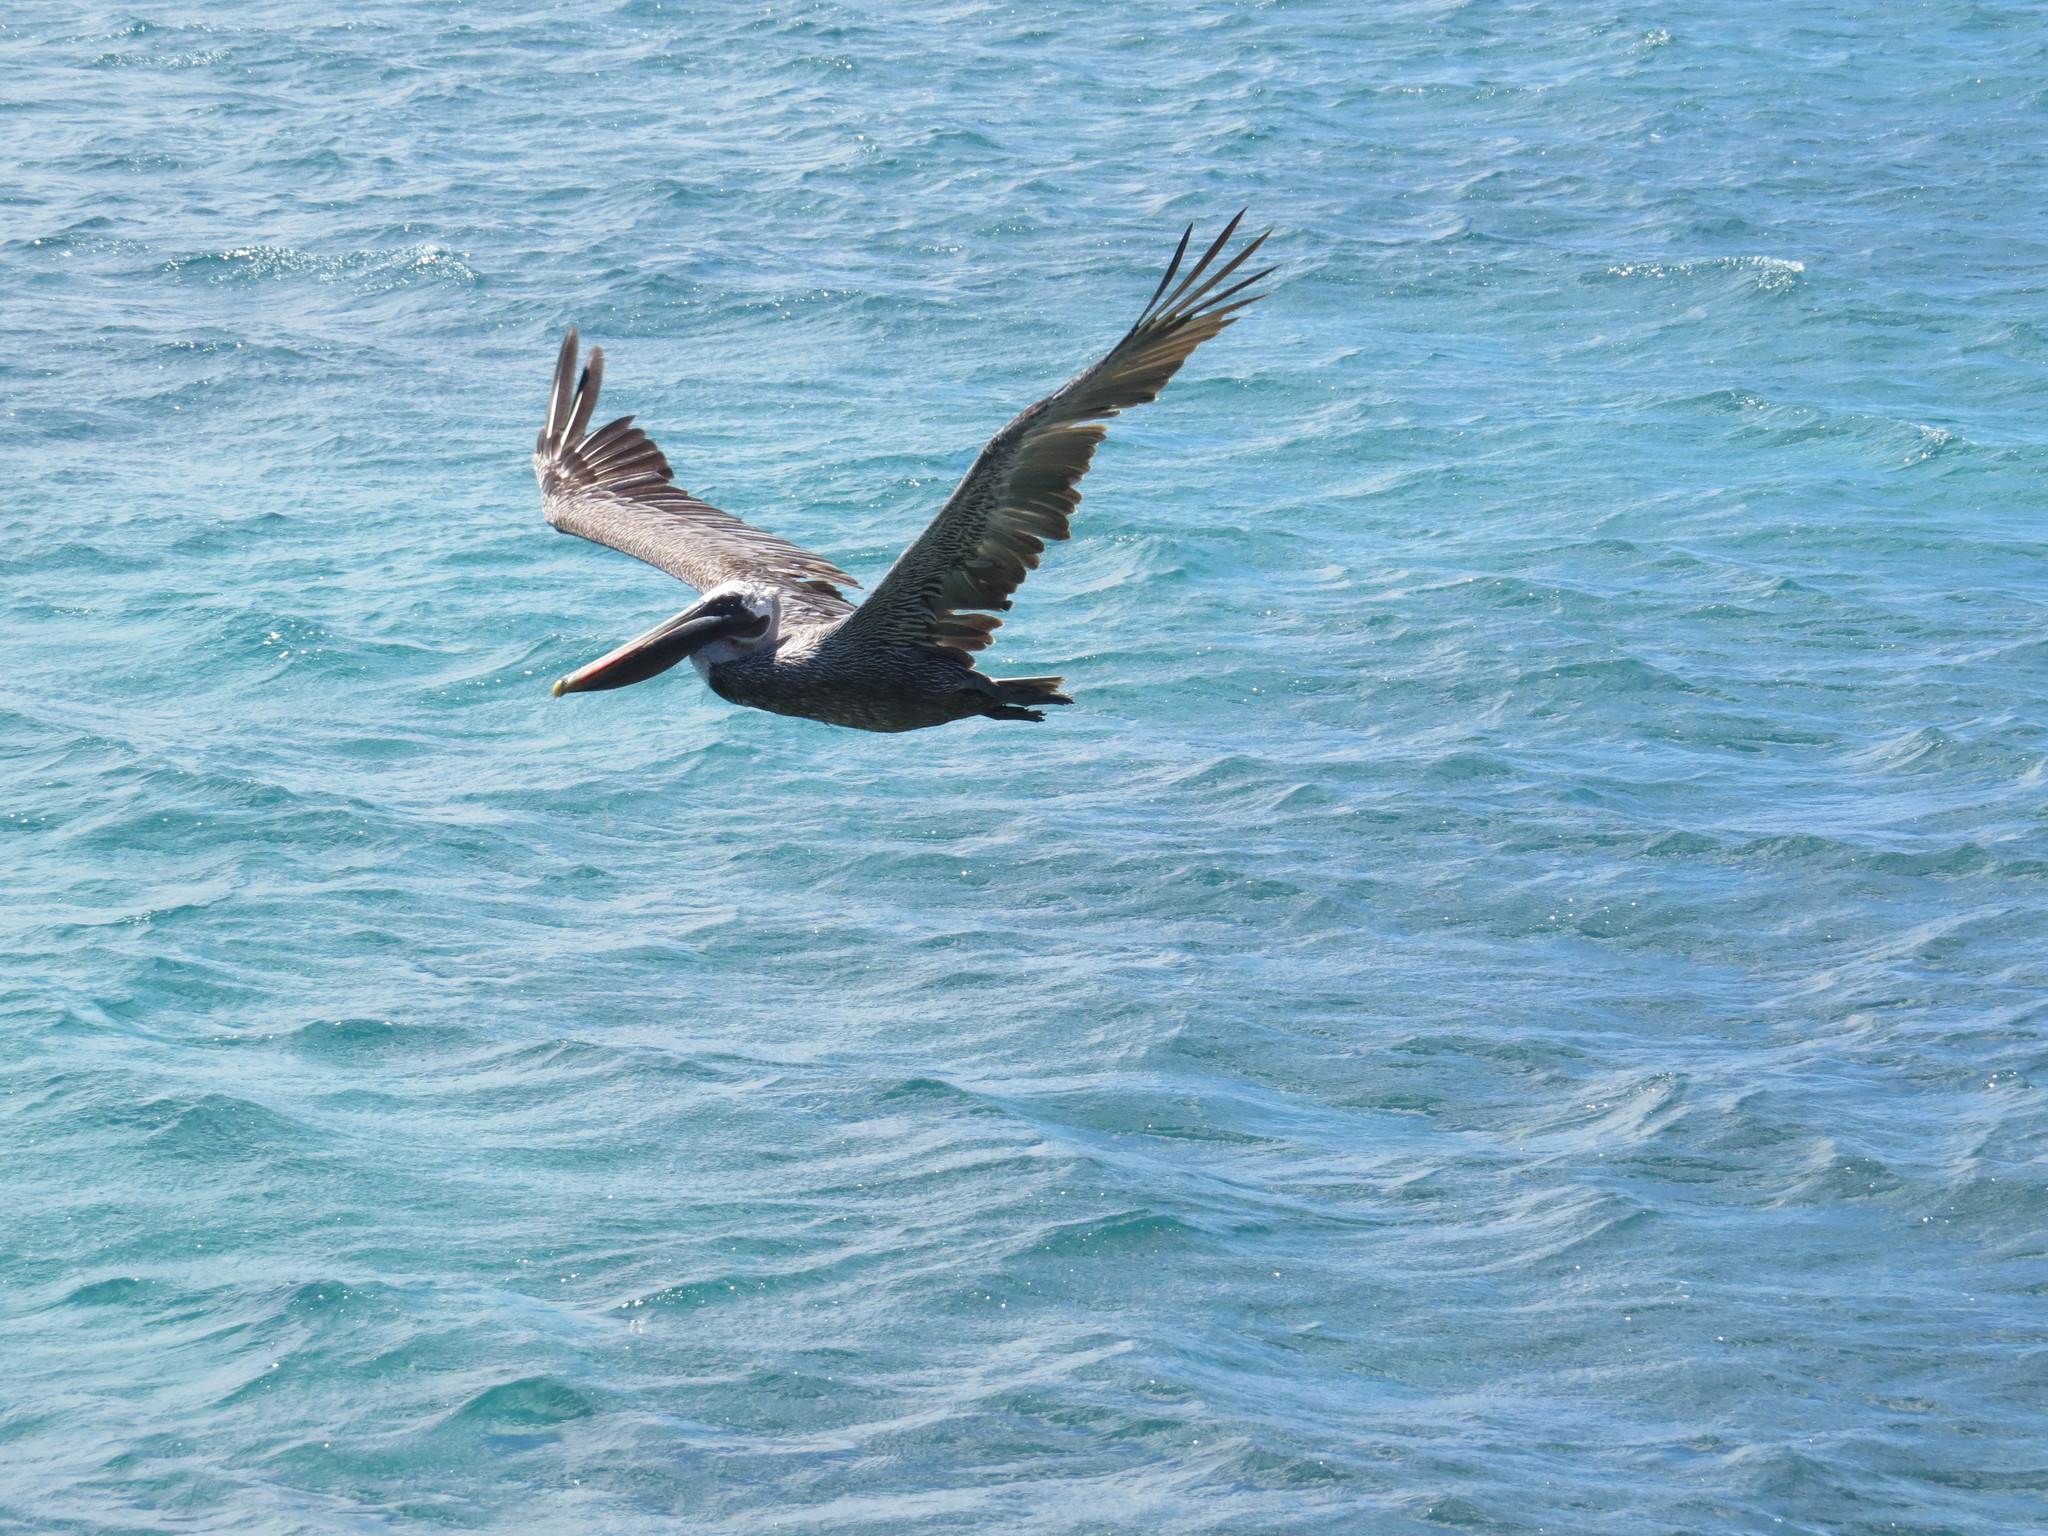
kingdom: Animalia
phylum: Chordata
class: Aves
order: Pelecaniformes
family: Pelecanidae
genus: Pelecanus
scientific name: Pelecanus occidentalis
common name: Brown pelican
